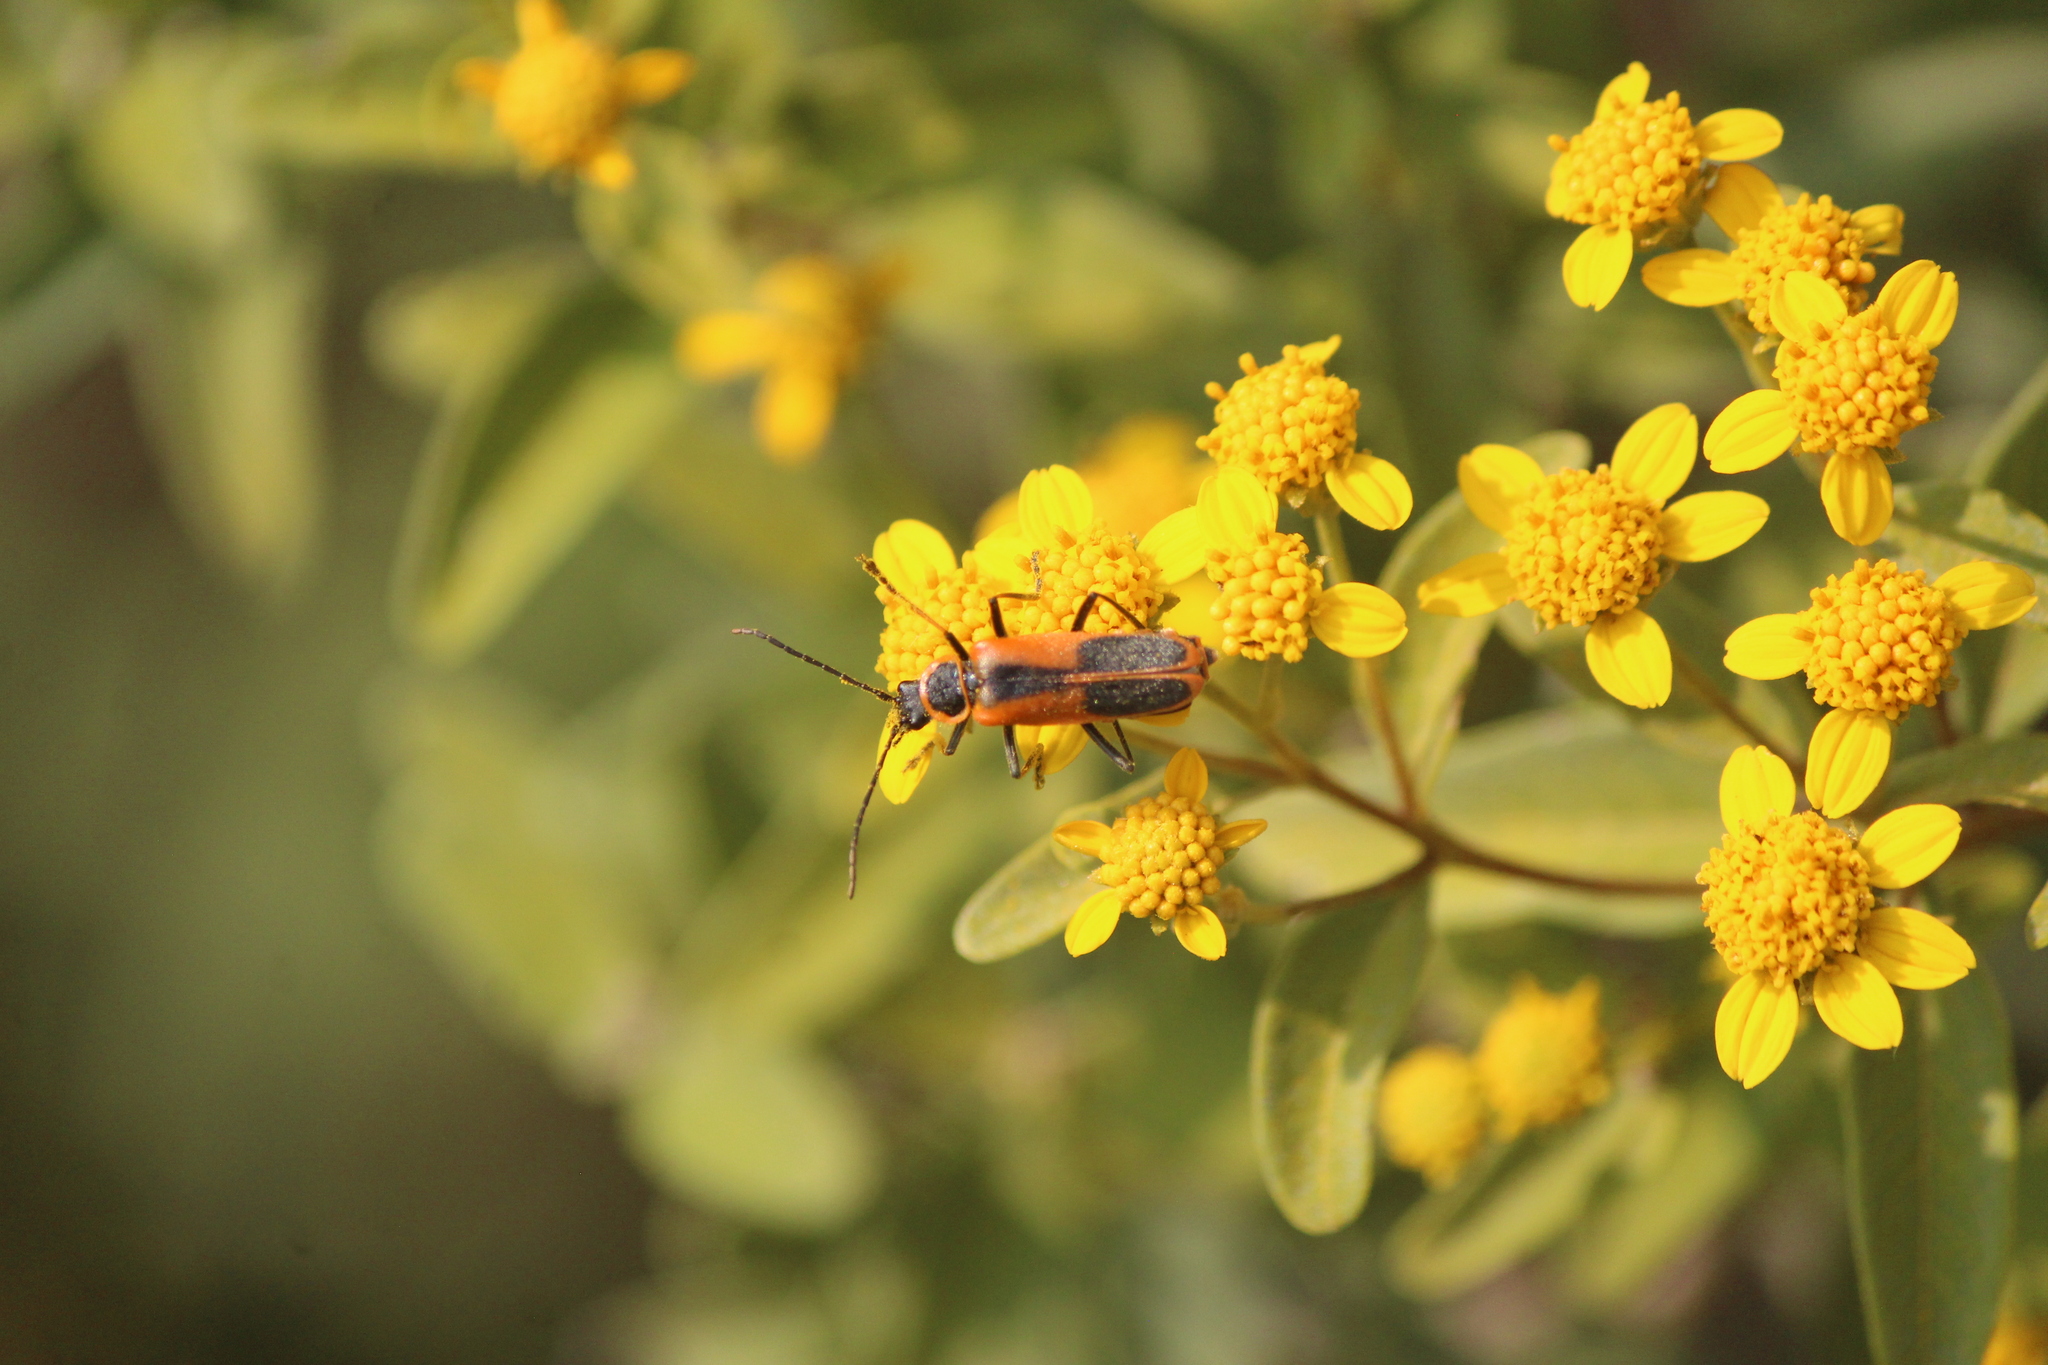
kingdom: Animalia
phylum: Arthropoda
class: Insecta
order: Coleoptera
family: Cantharidae
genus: Chauliognathus
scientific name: Chauliognathus limbicollis
